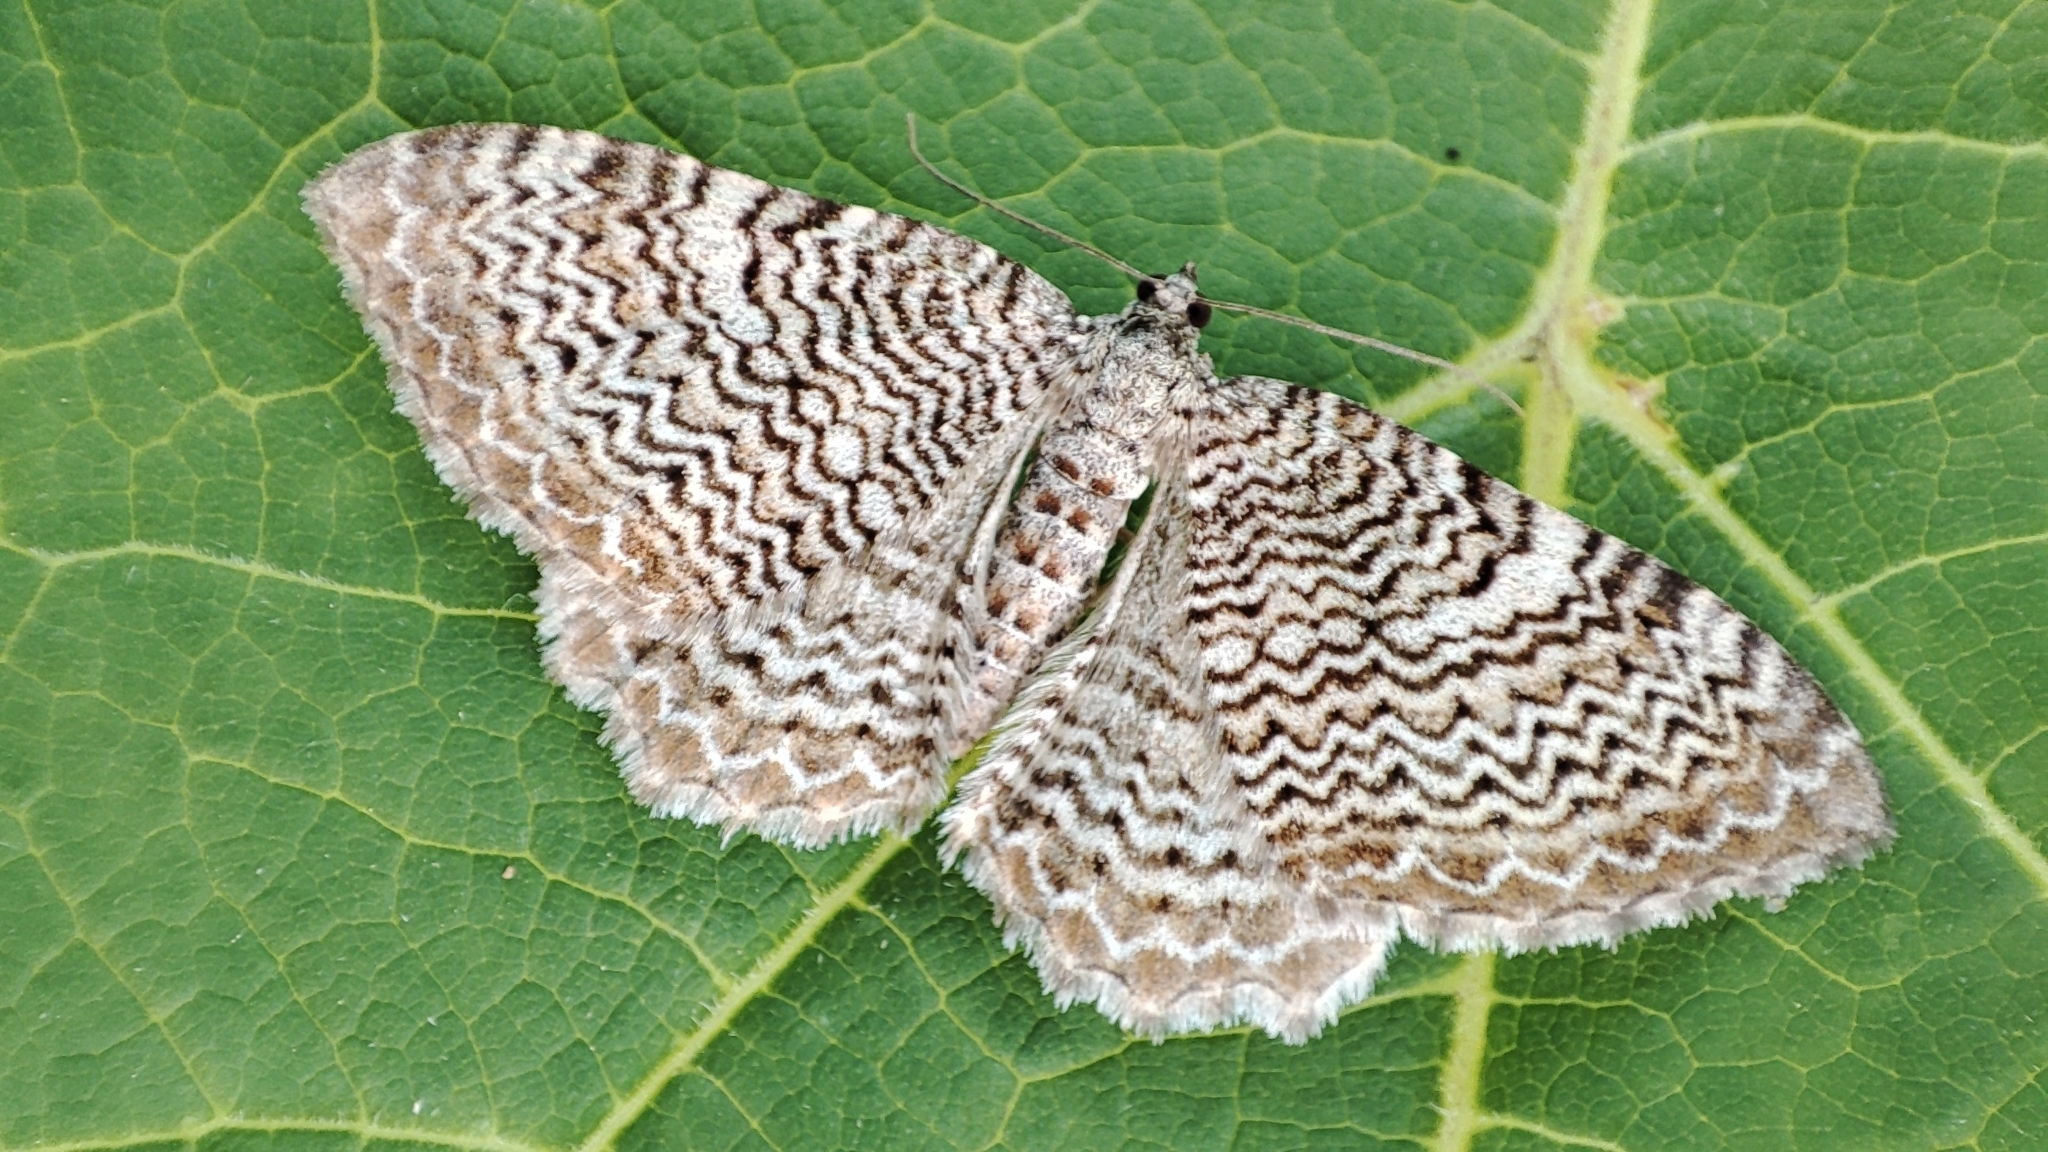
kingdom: Animalia
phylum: Arthropoda
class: Insecta
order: Lepidoptera
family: Geometridae
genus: Rheumaptera
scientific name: Rheumaptera undulata
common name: Scallop shell
